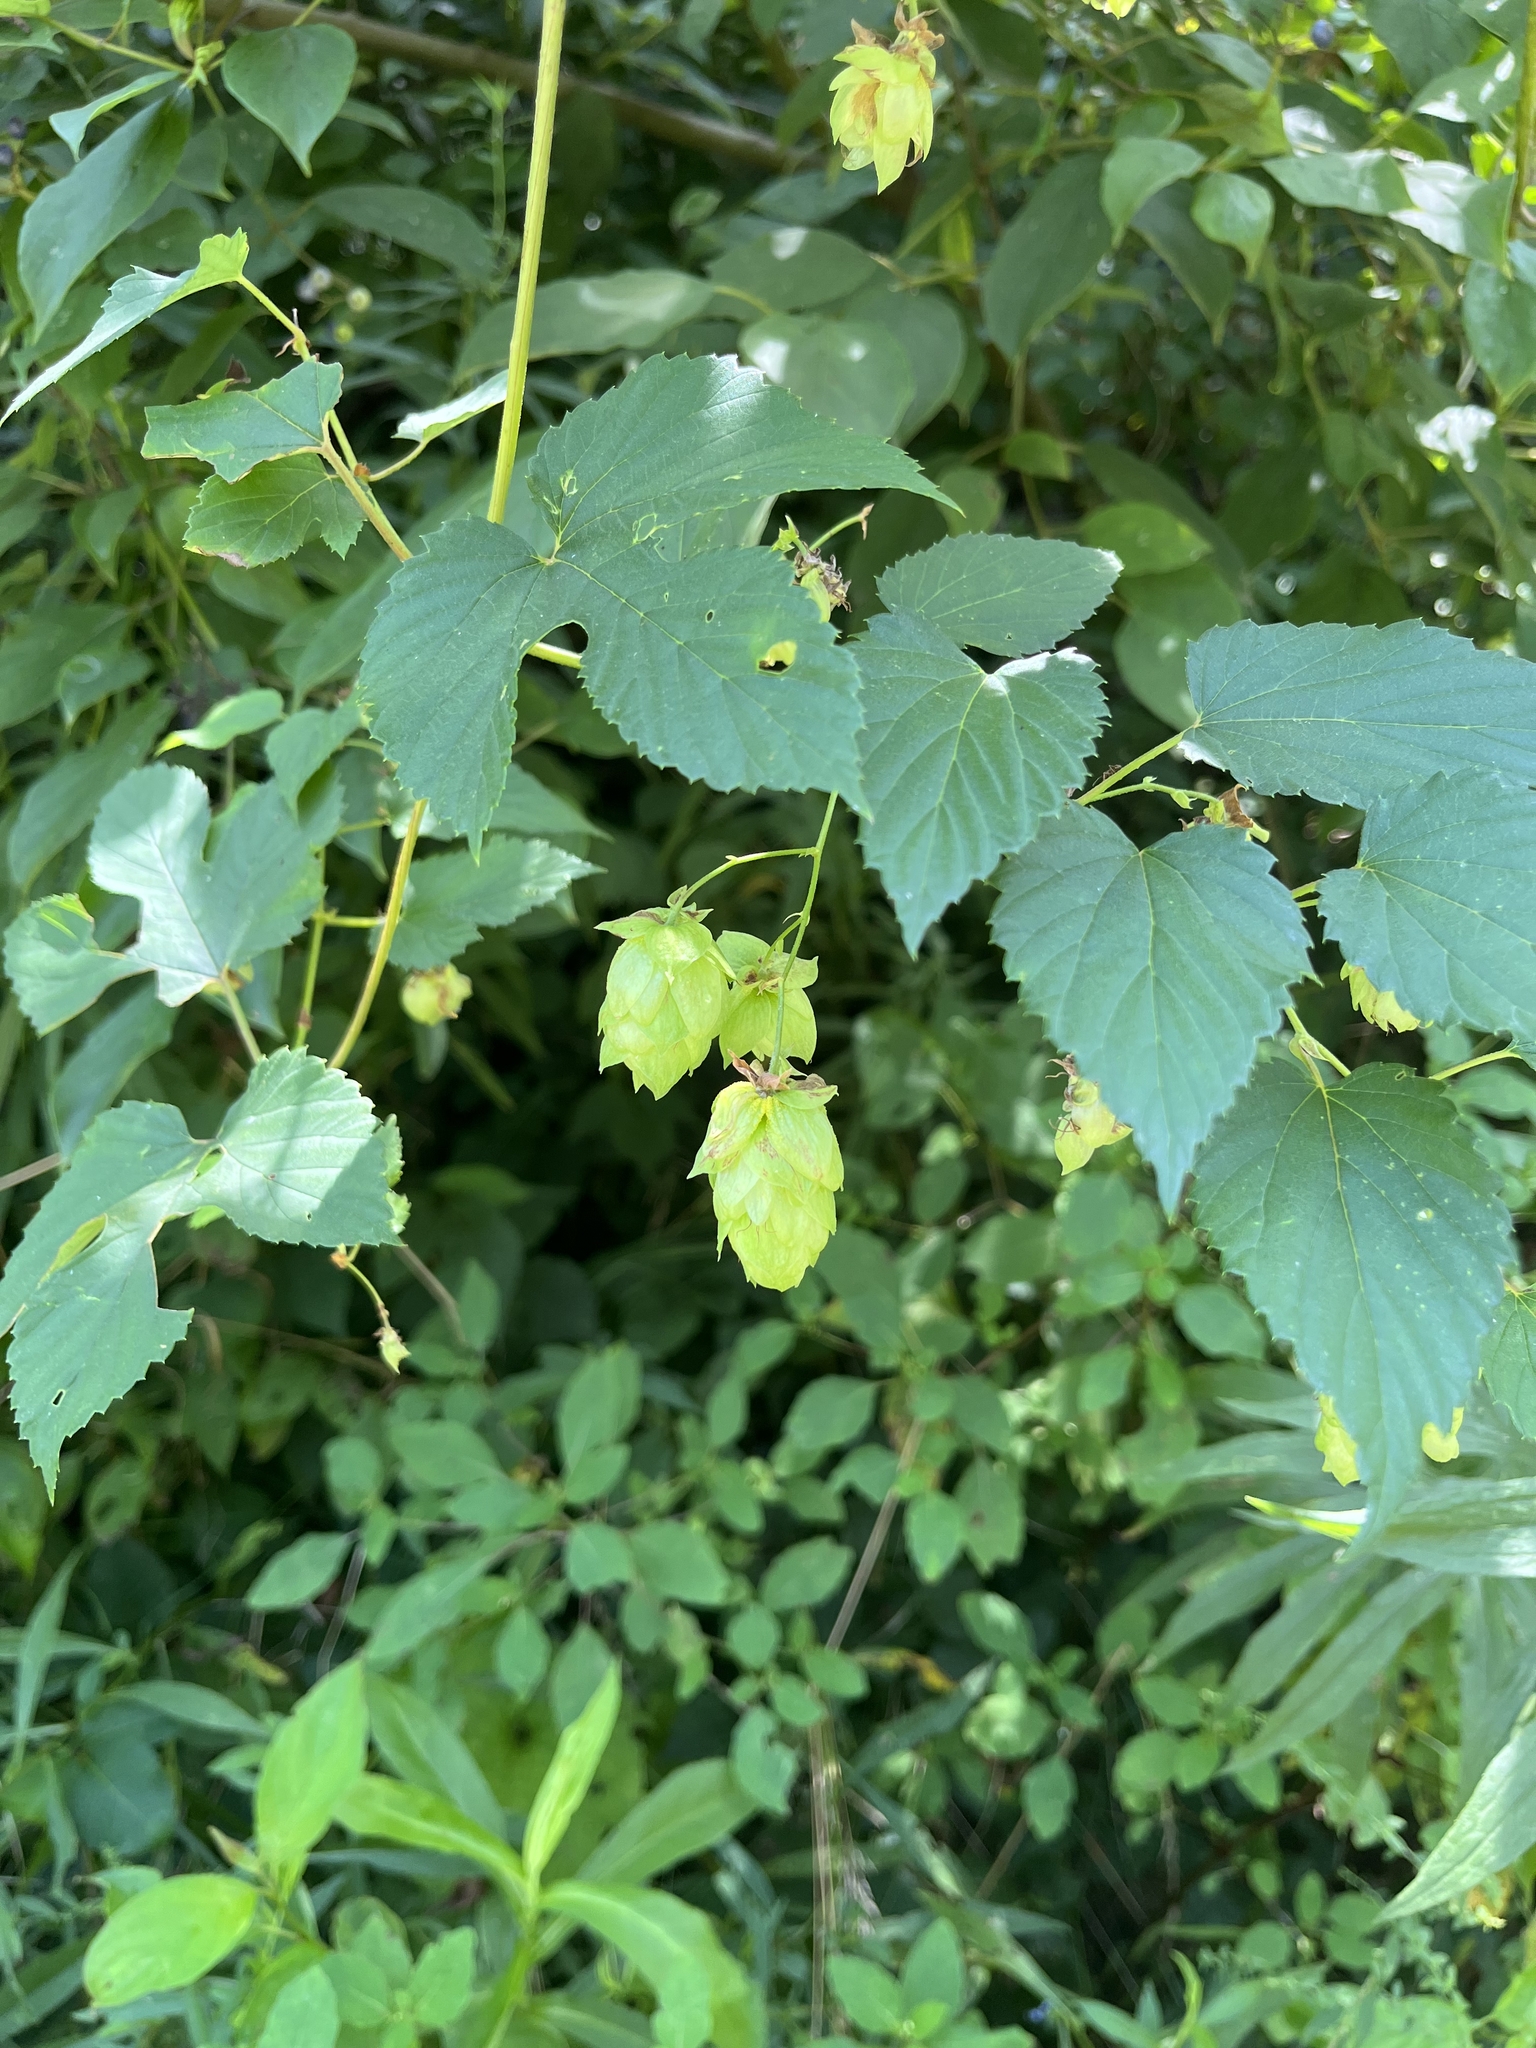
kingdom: Plantae
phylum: Tracheophyta
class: Magnoliopsida
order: Rosales
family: Cannabaceae
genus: Humulus
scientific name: Humulus lupulus
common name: Hop
